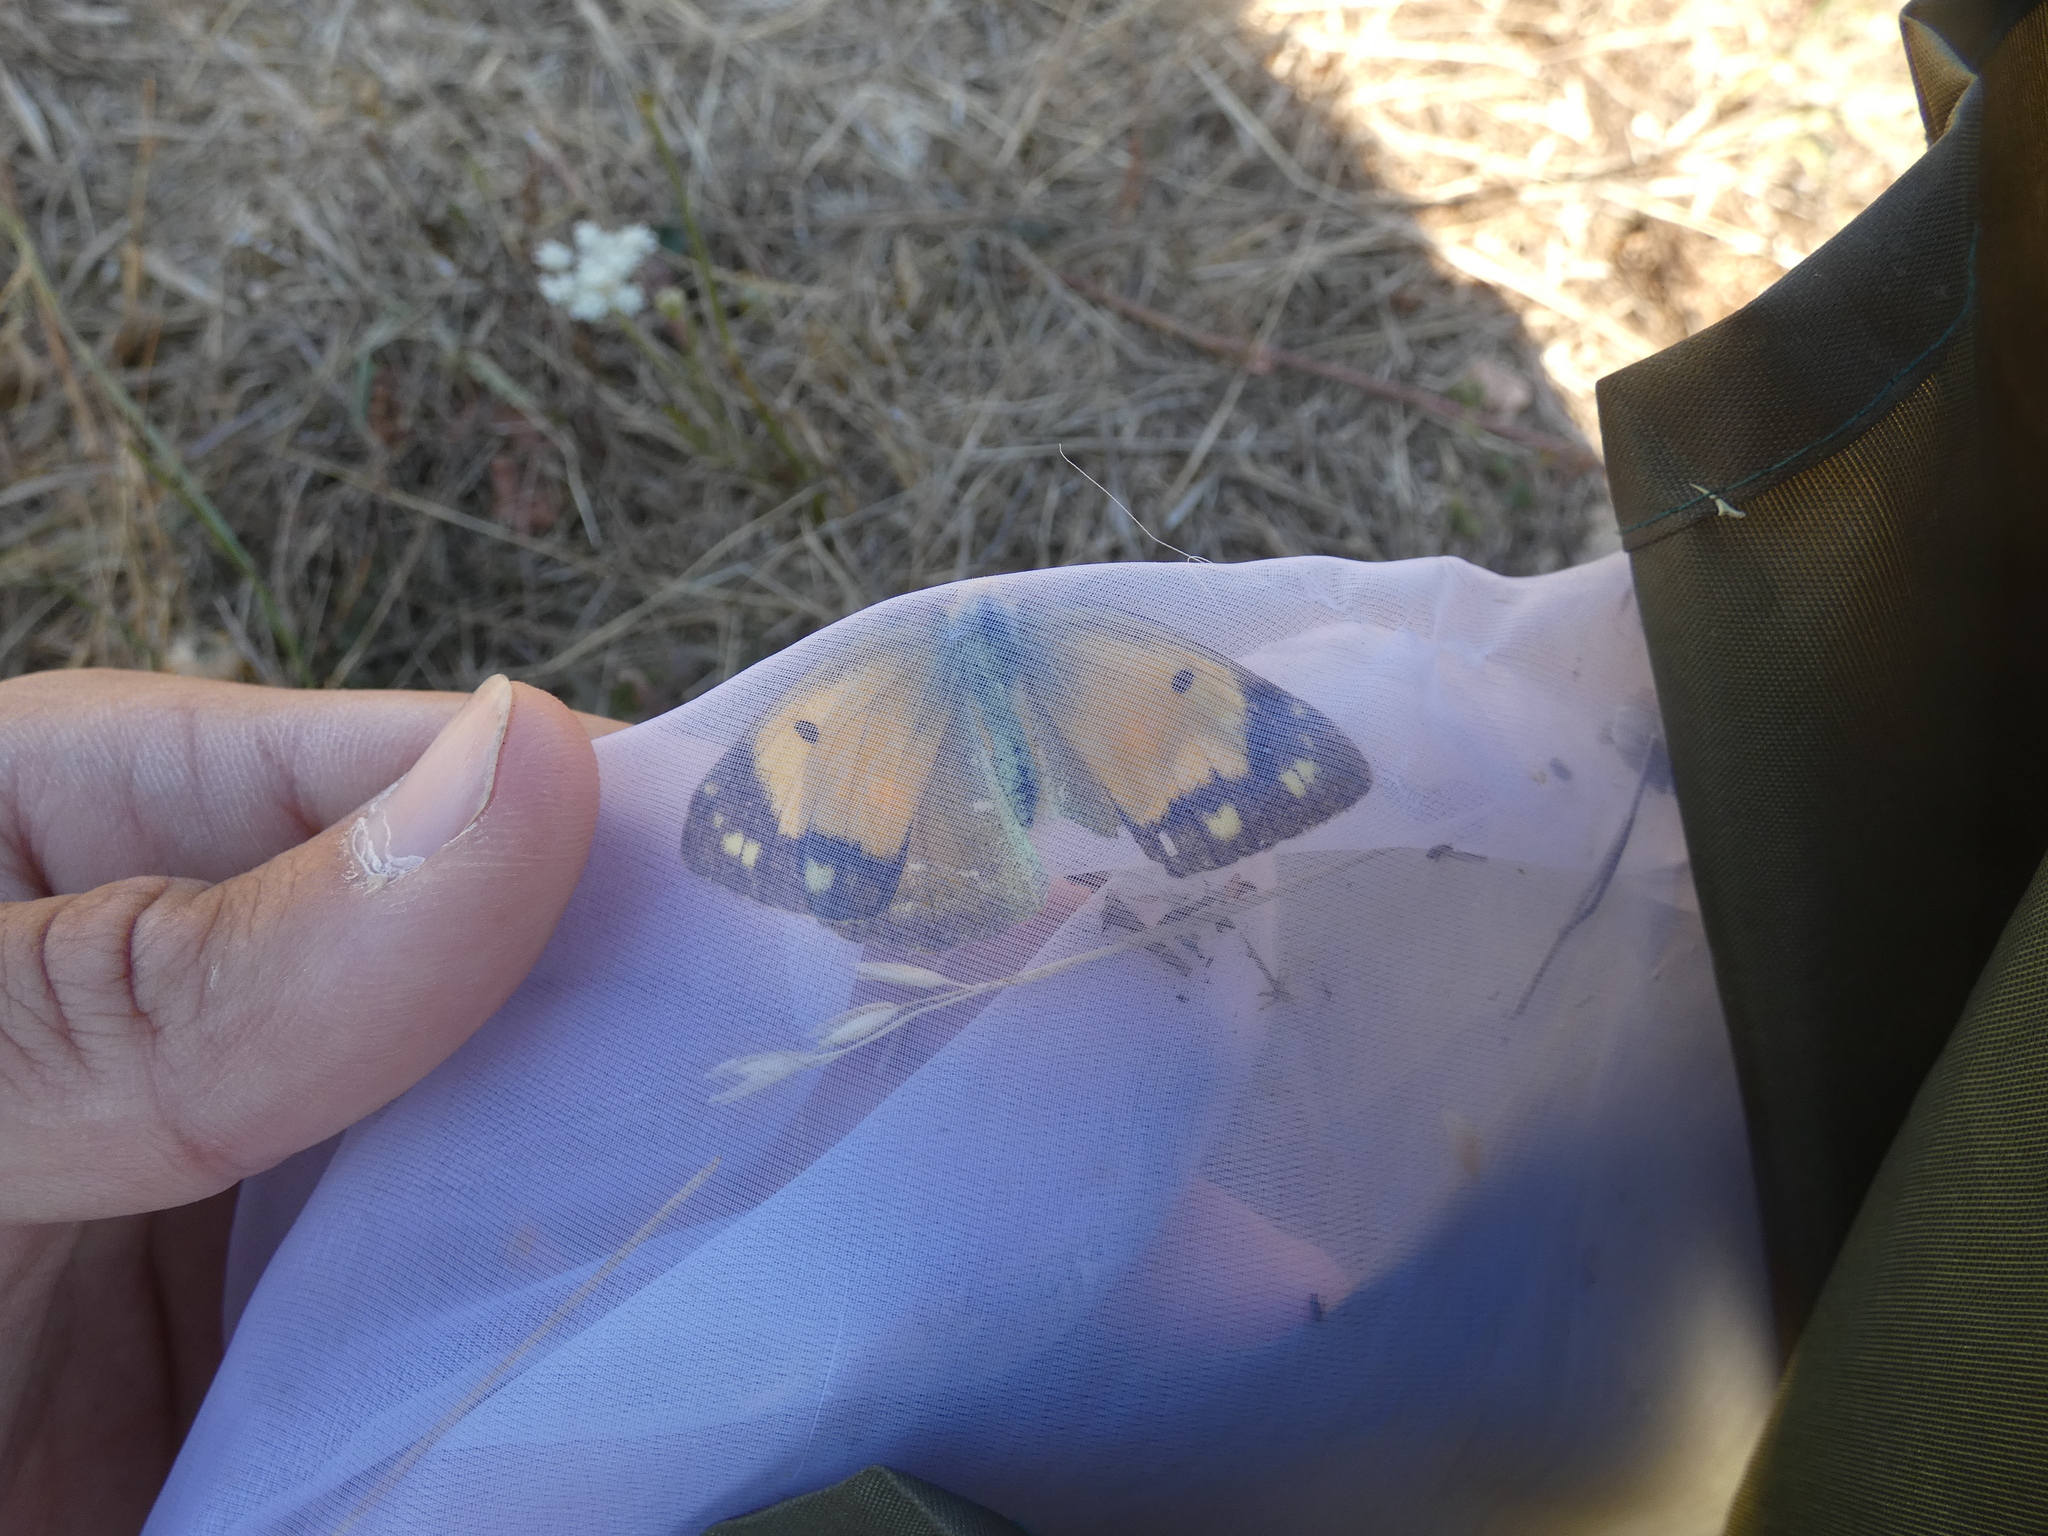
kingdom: Animalia
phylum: Arthropoda
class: Insecta
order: Lepidoptera
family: Pieridae
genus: Colias
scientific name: Colias croceus
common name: Clouded yellow
